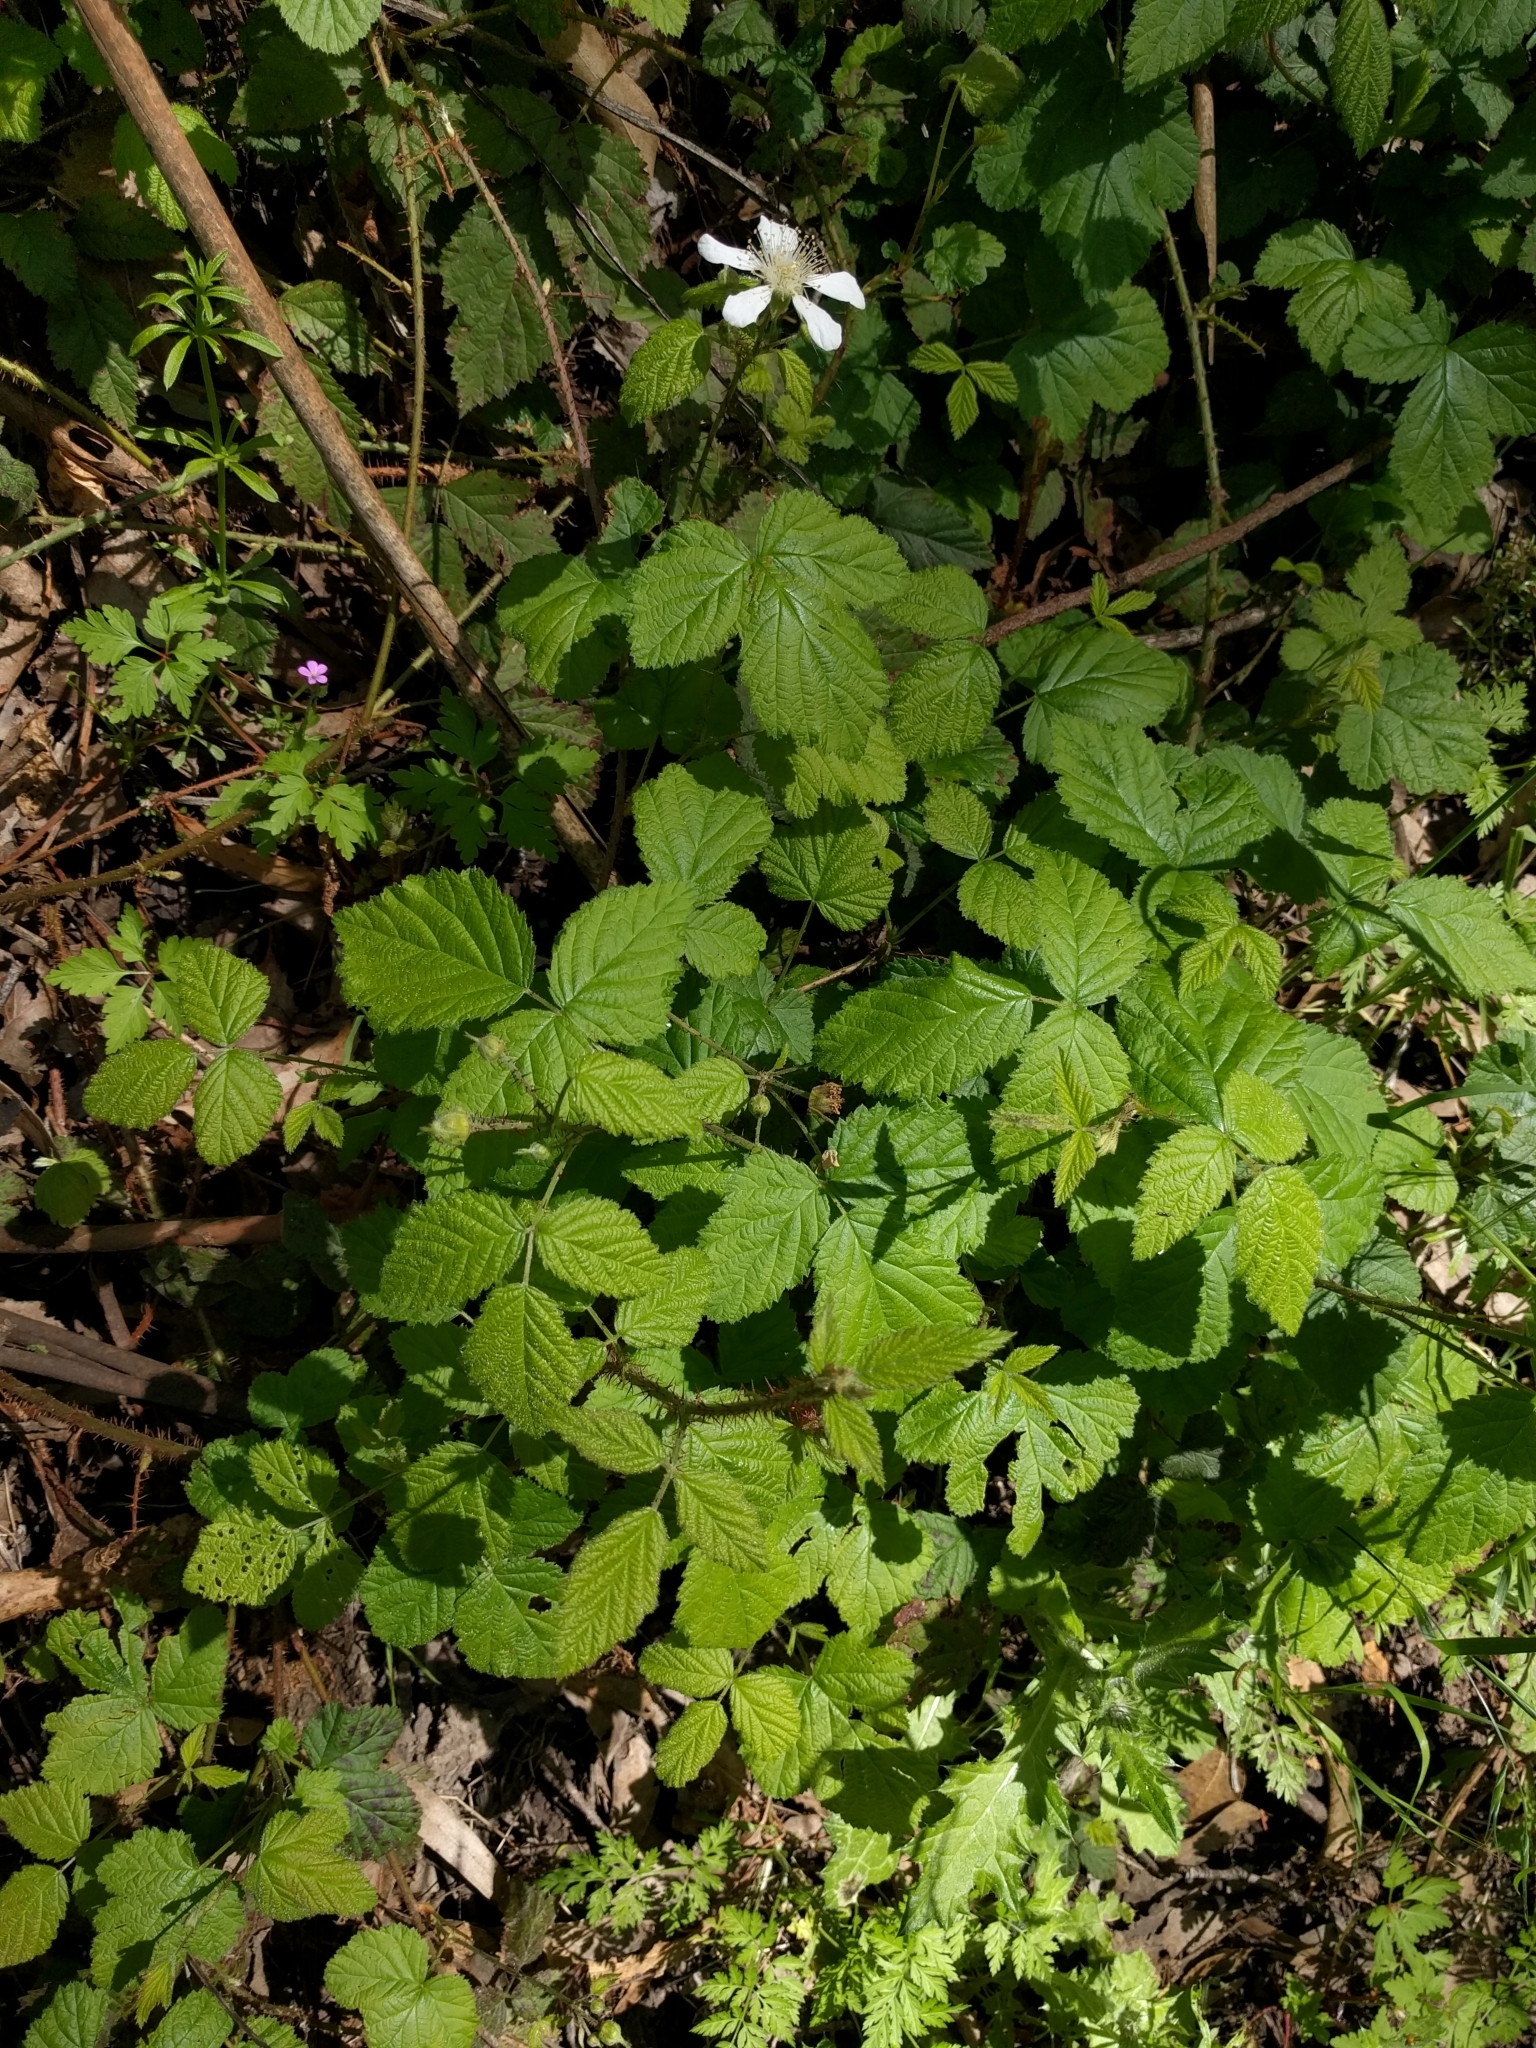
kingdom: Plantae
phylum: Tracheophyta
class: Magnoliopsida
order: Rosales
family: Rosaceae
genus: Rubus
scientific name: Rubus ursinus
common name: Pacific blackberry
